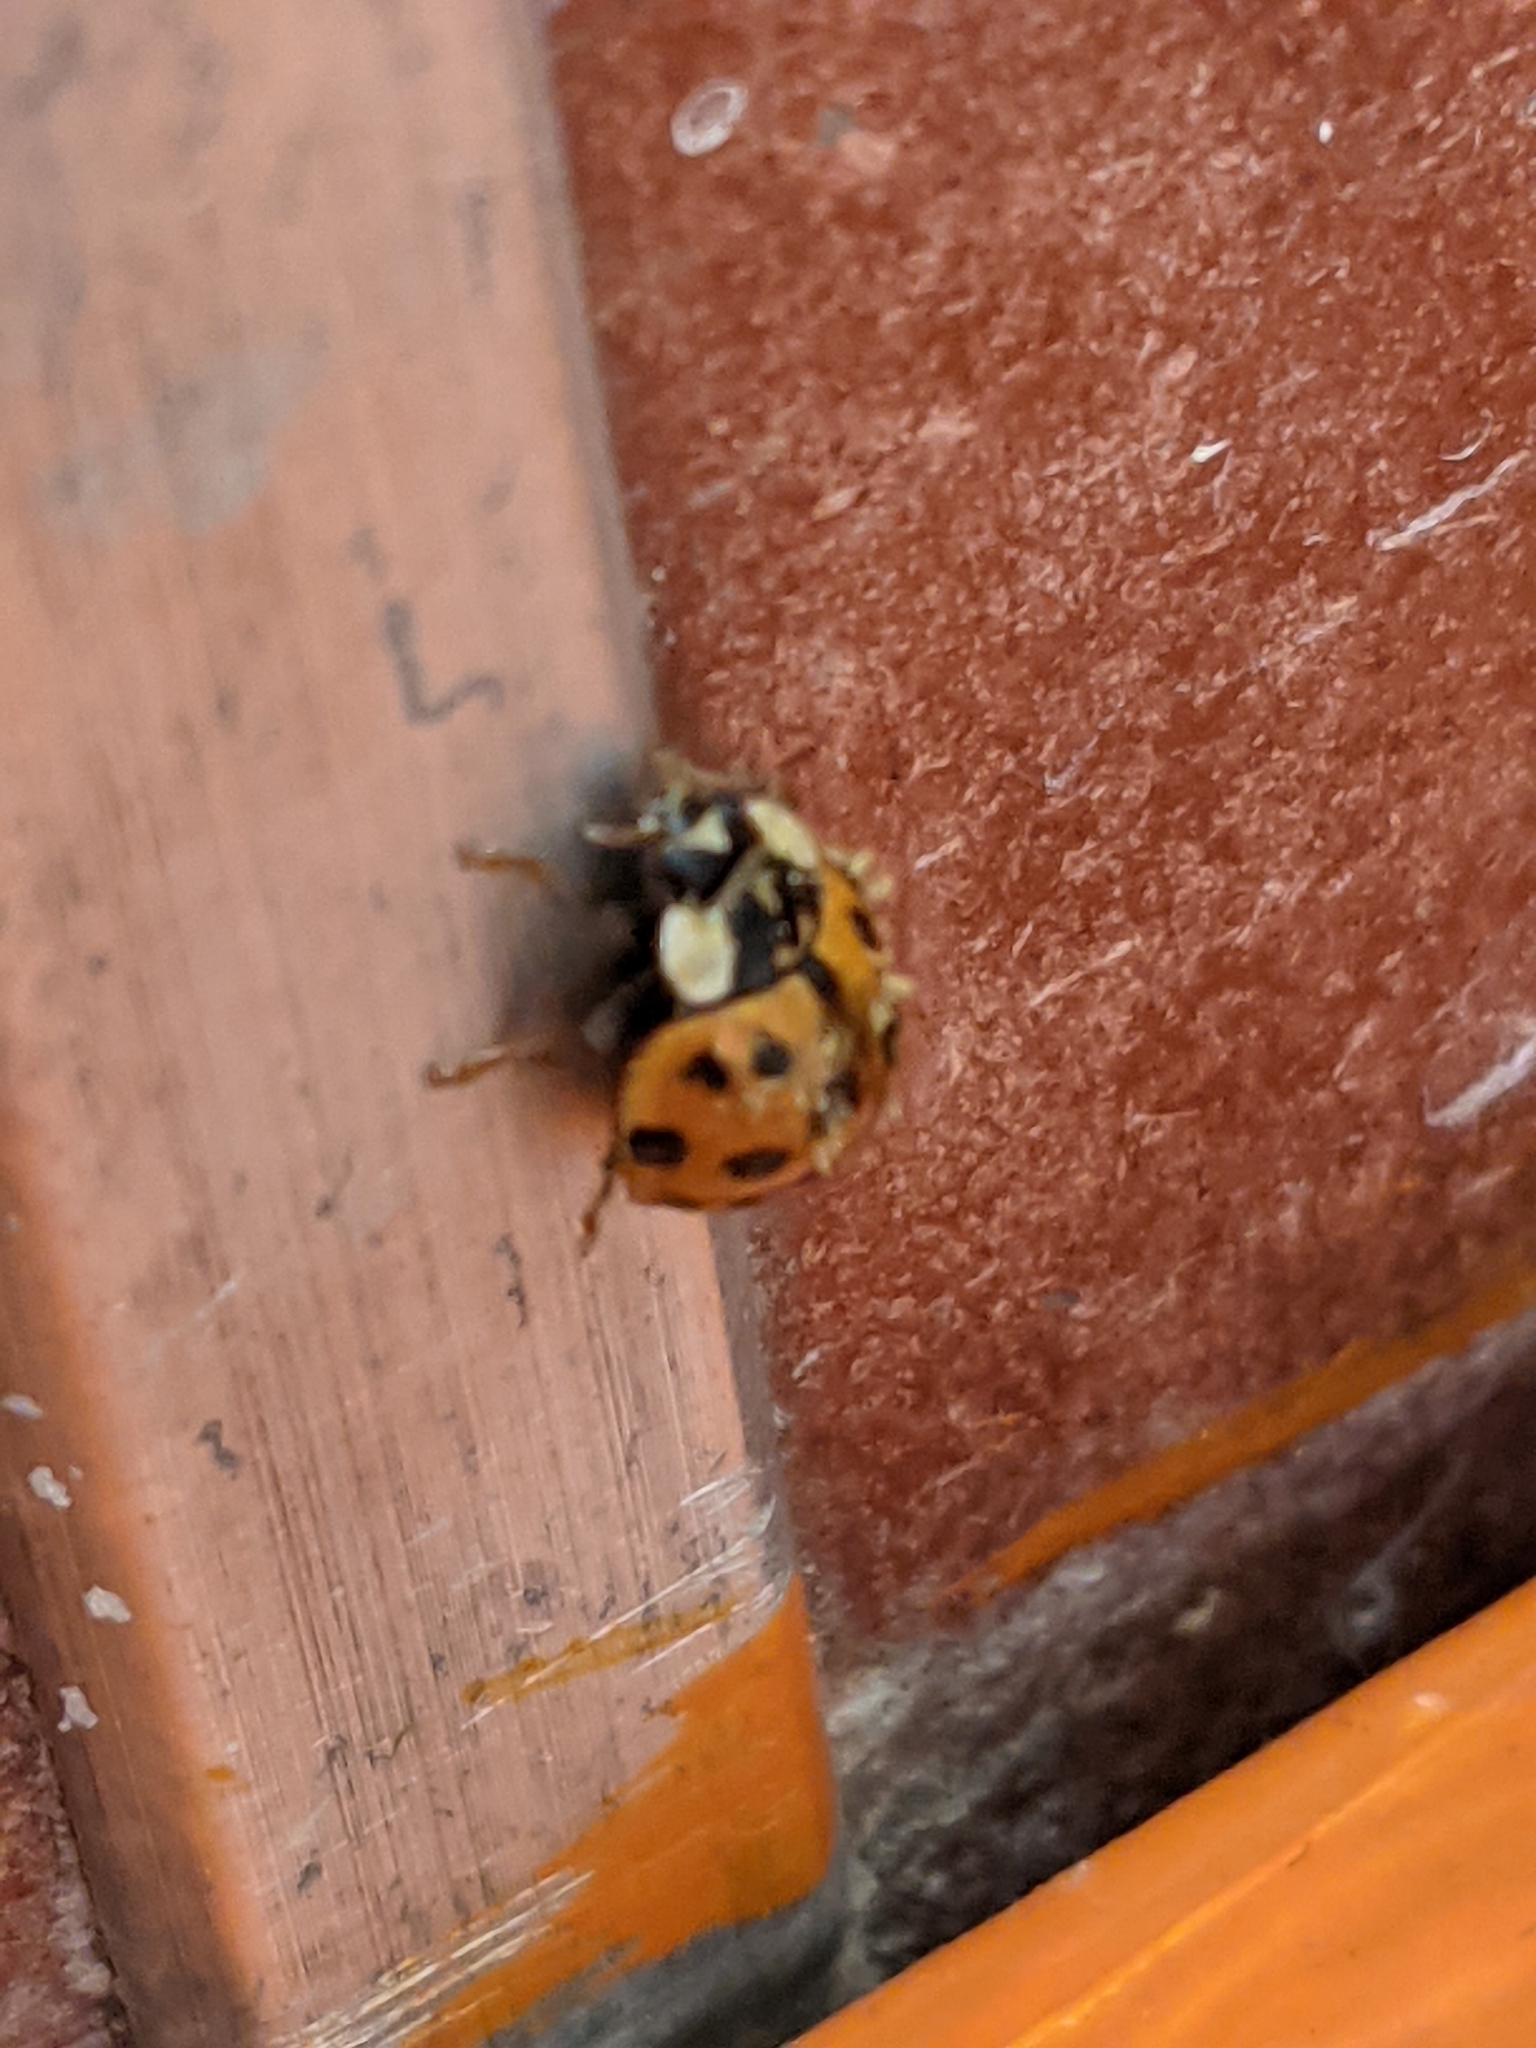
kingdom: Fungi
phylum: Ascomycota
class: Laboulbeniomycetes
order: Laboulbeniales
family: Laboulbeniaceae
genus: Hesperomyces
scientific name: Hesperomyces harmoniae
